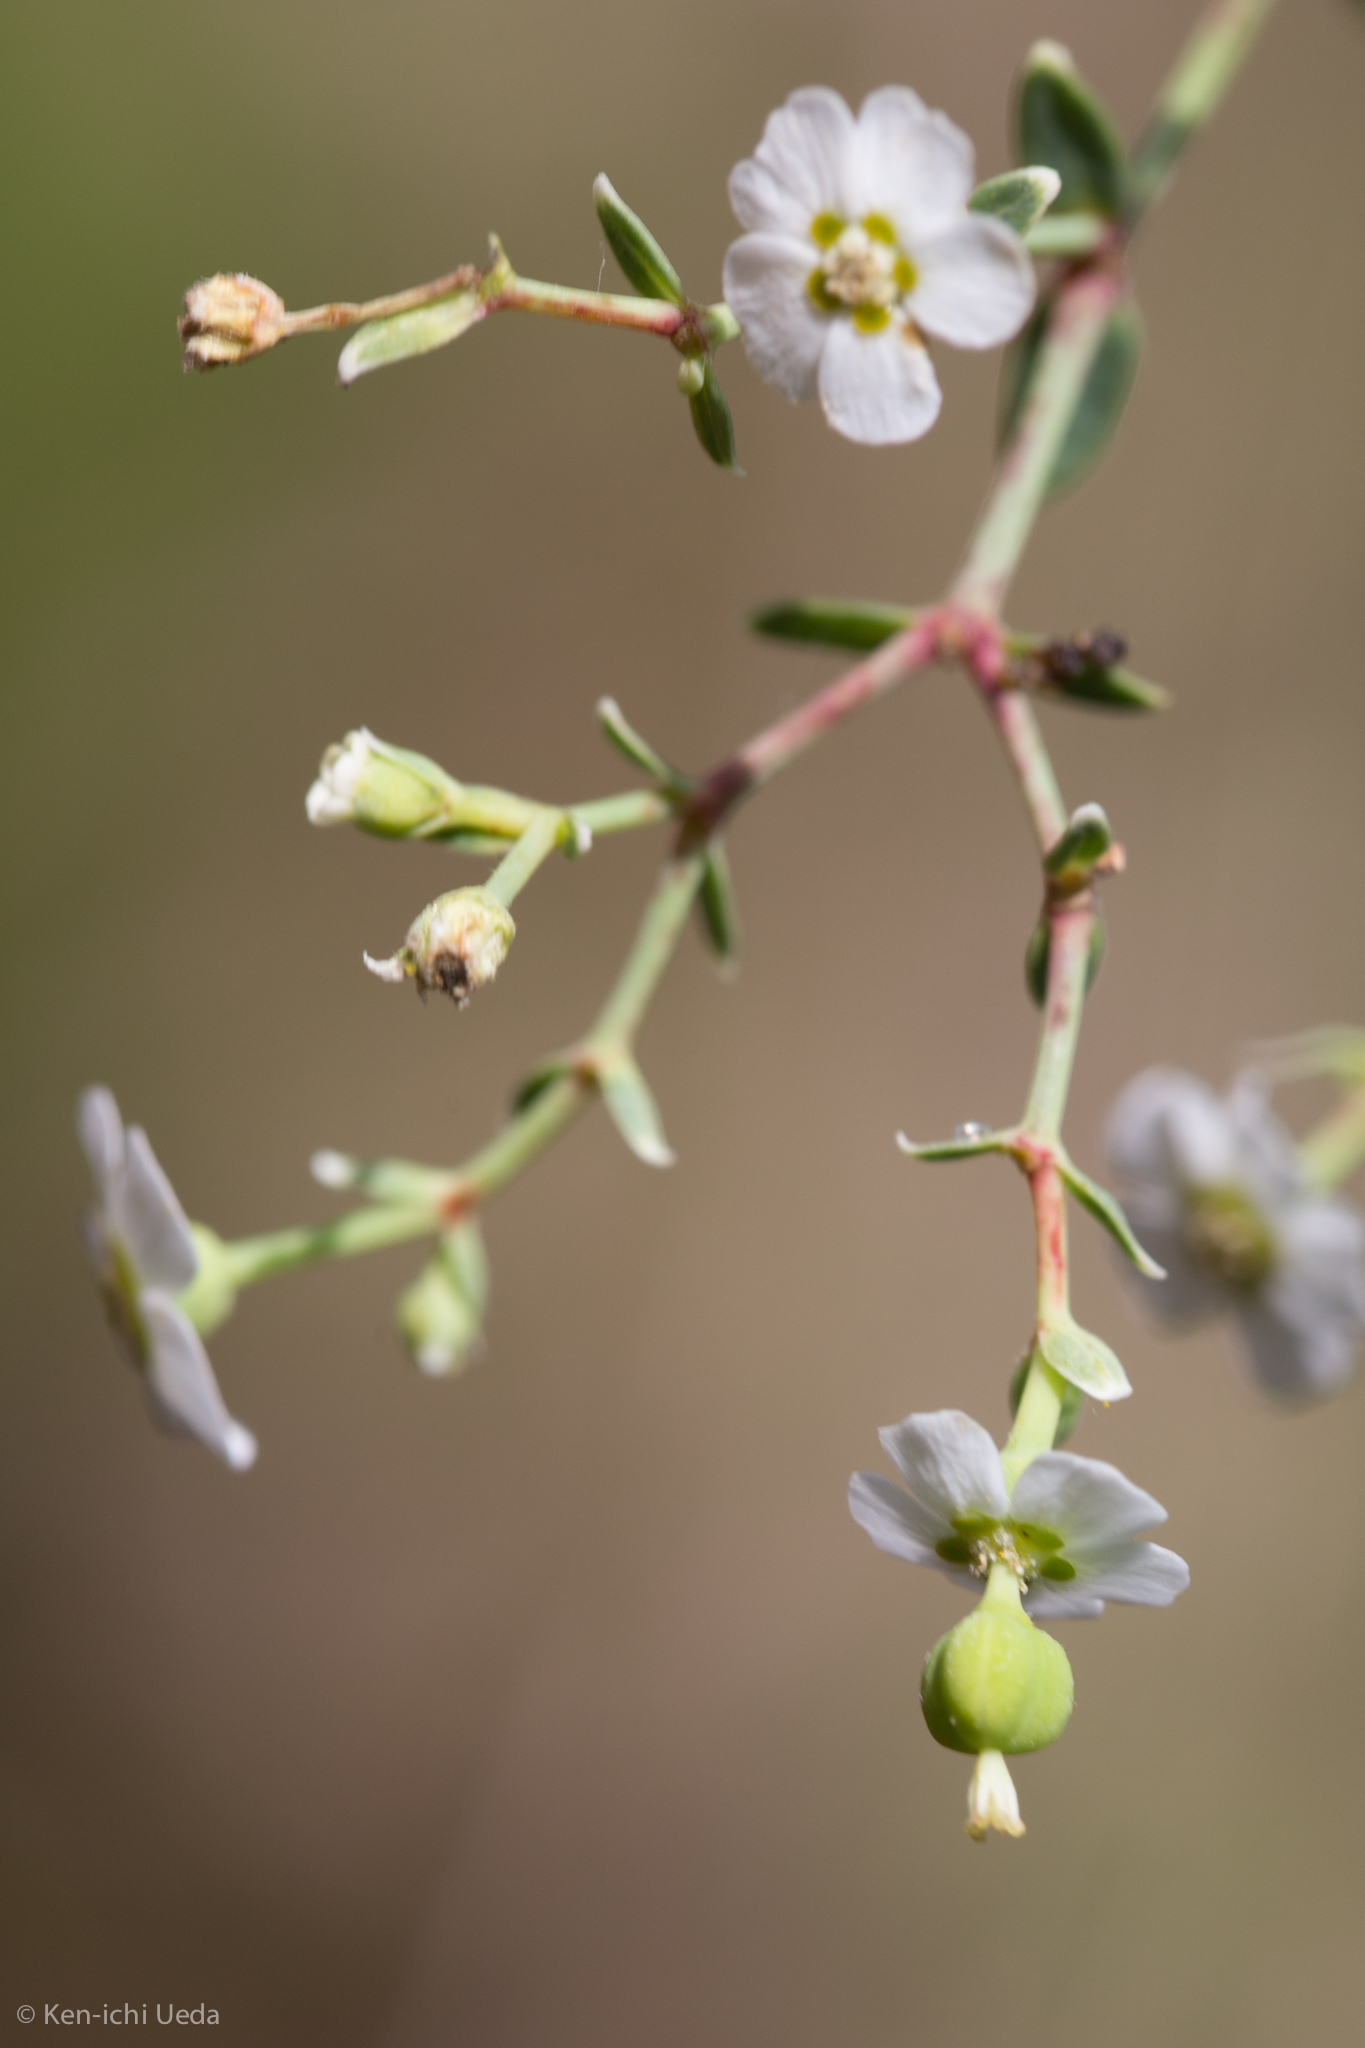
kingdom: Plantae
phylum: Tracheophyta
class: Magnoliopsida
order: Malpighiales
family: Euphorbiaceae
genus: Euphorbia
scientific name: Euphorbia corollata
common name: Flowering spurge
